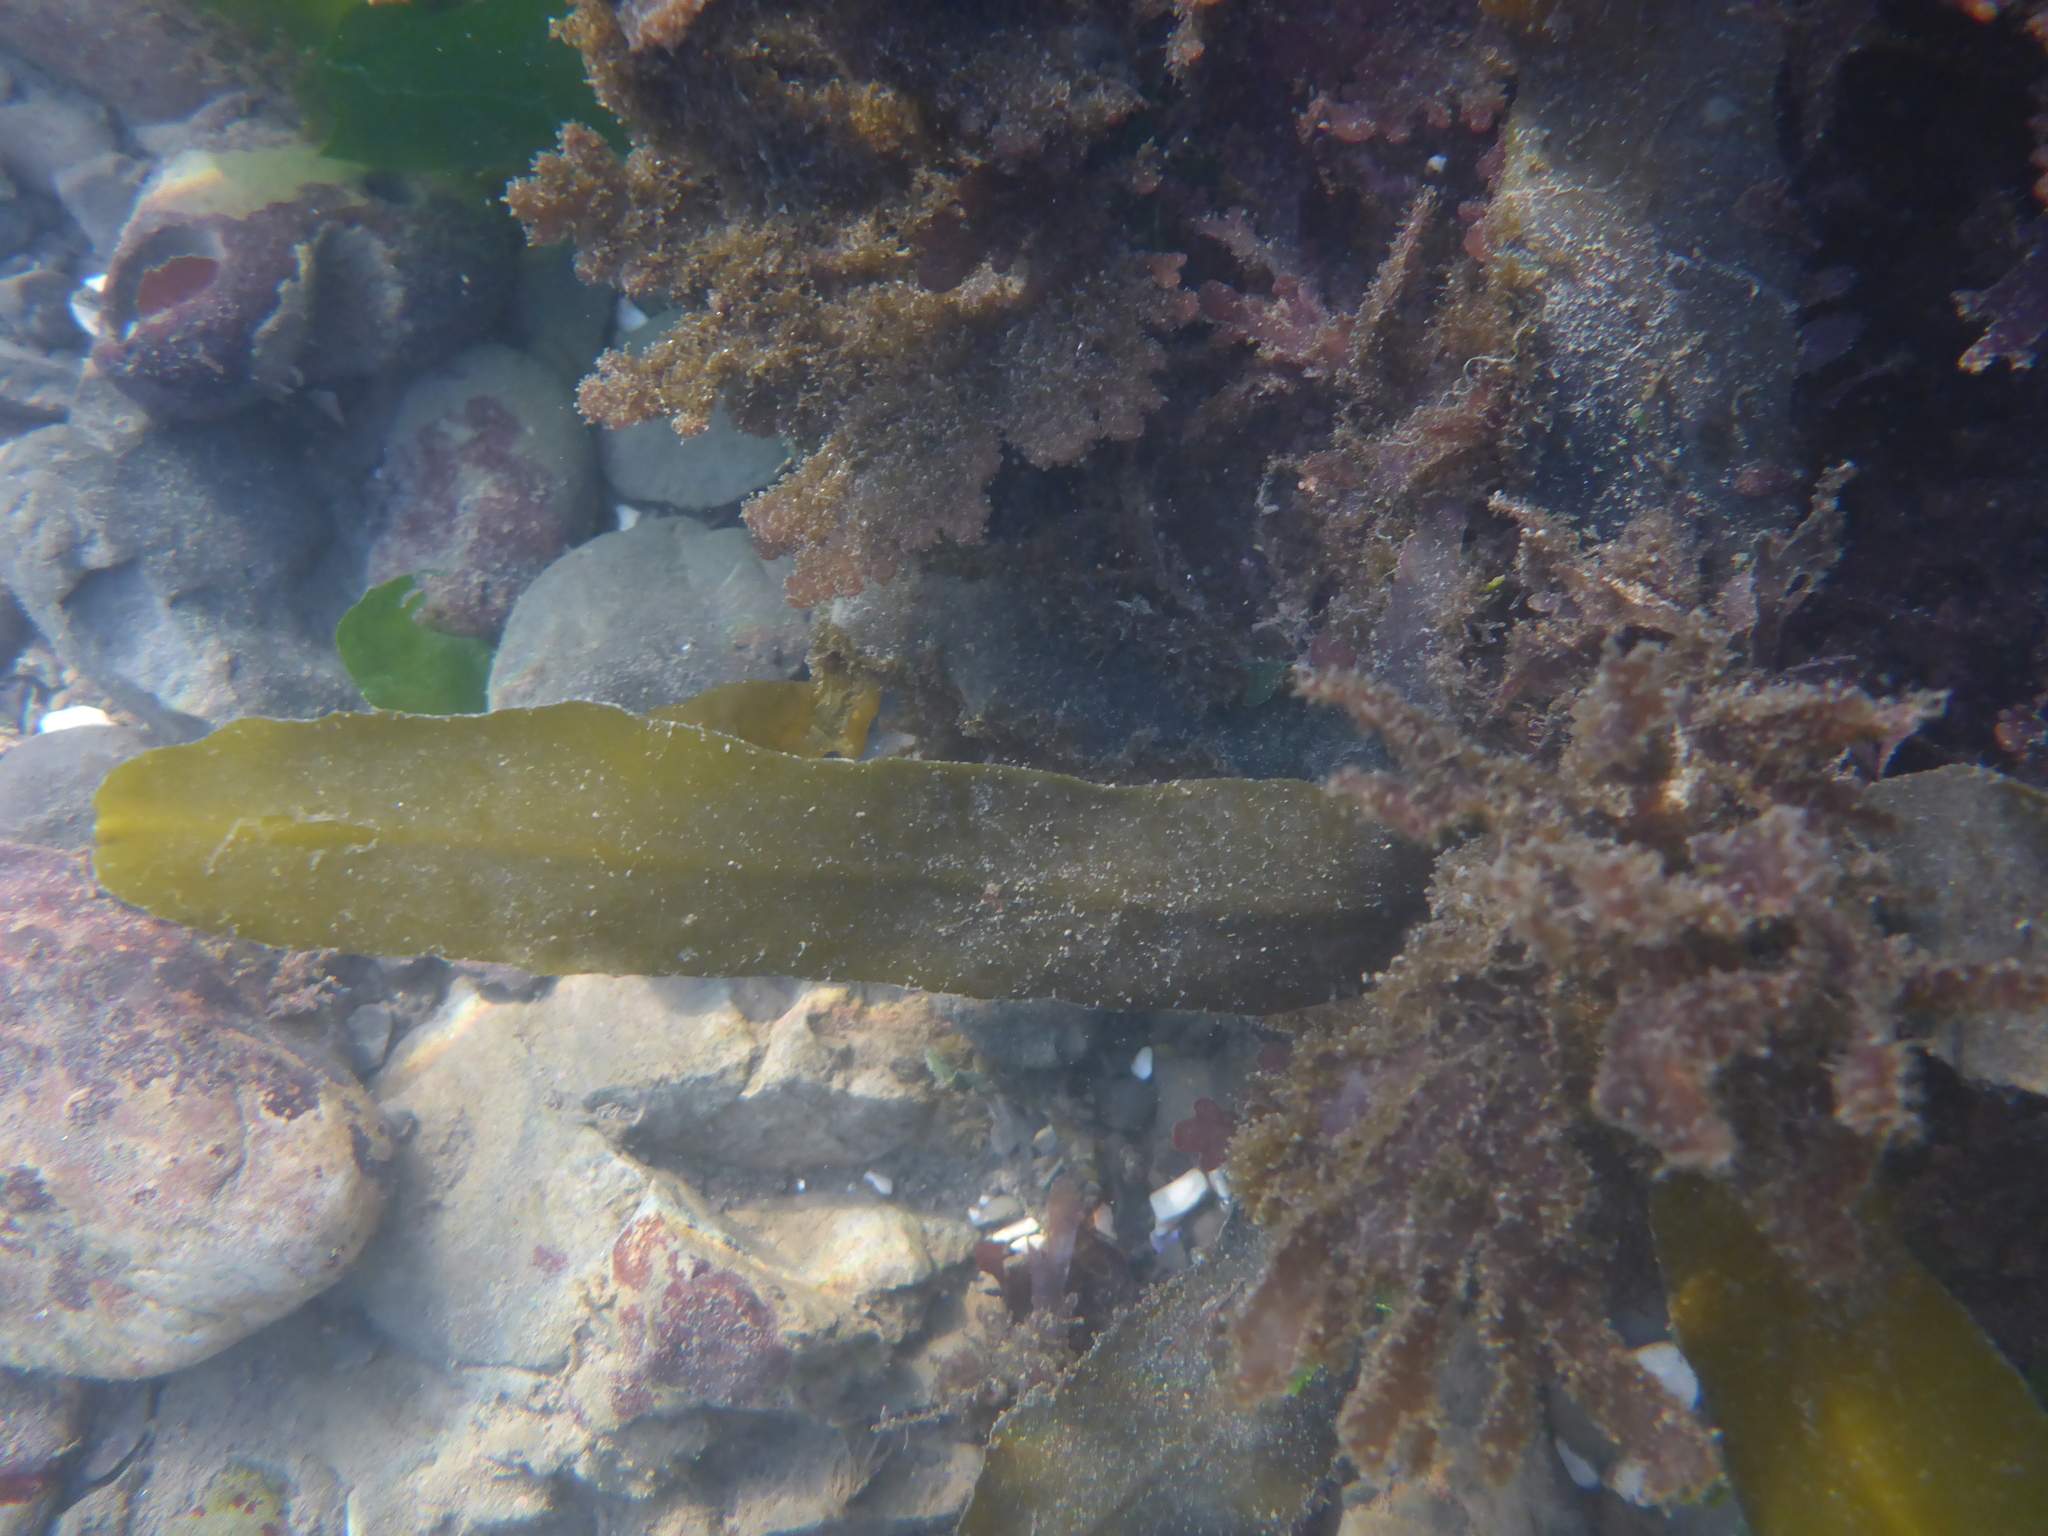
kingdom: Chromista
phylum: Ochrophyta
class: Phaeophyceae
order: Fucales
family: Sargassaceae
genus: Stephanocystis
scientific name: Stephanocystis
